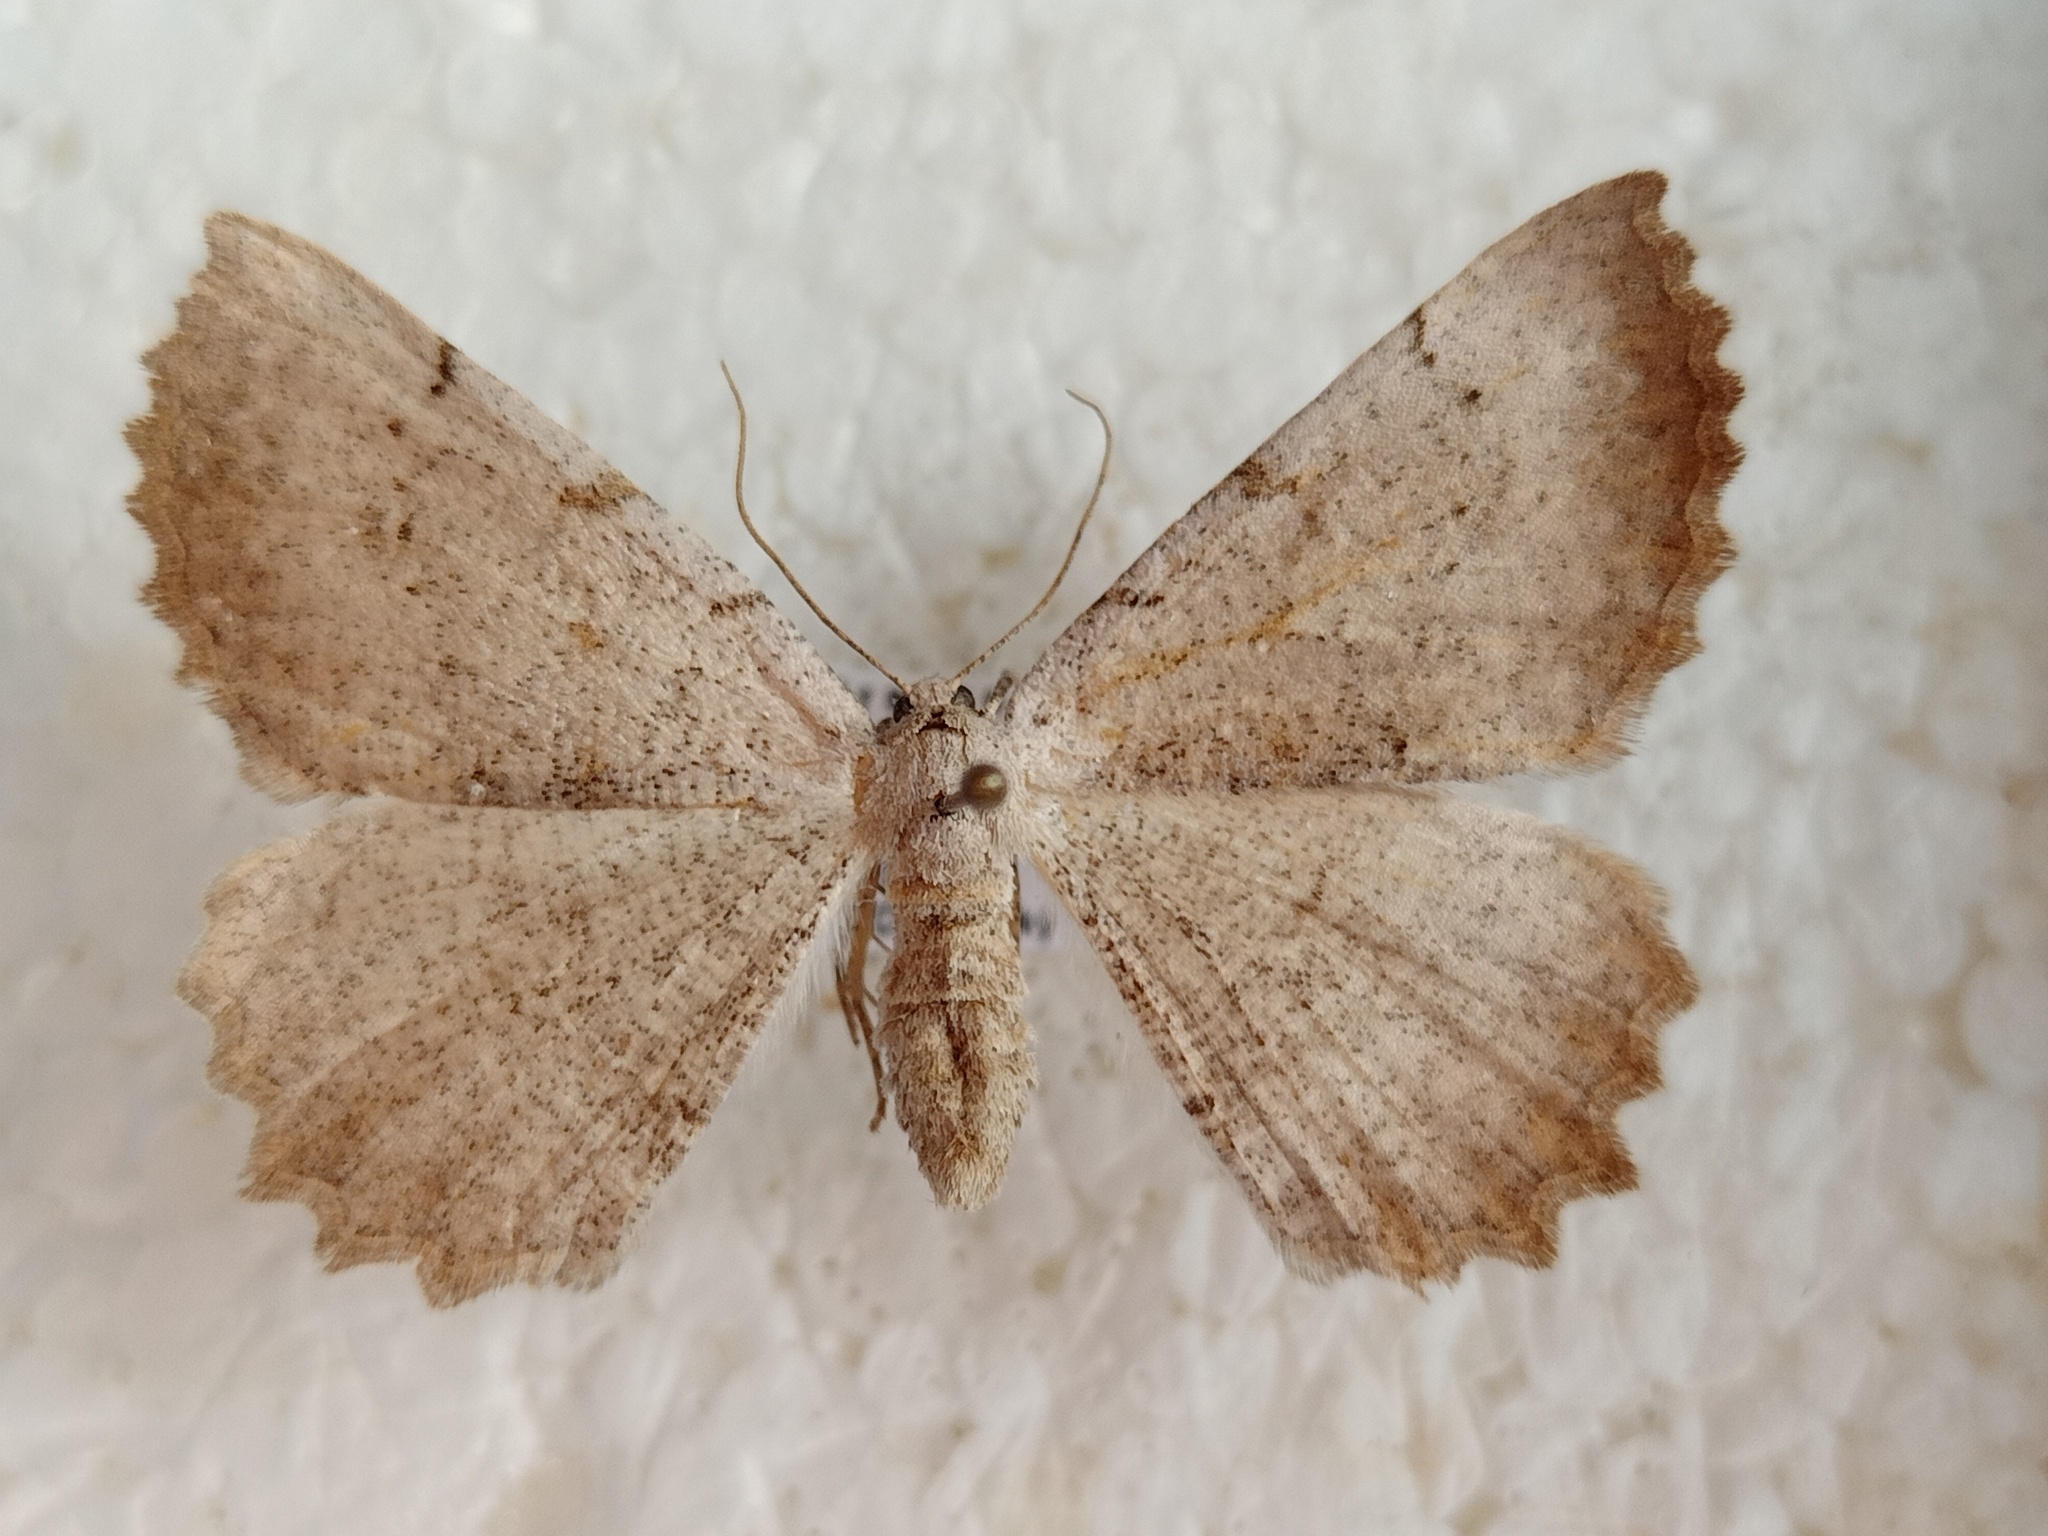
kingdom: Animalia
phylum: Arthropoda
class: Insecta
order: Lepidoptera
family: Geometridae
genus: Odontognophos
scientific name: Odontognophos dumetata
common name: Irish annulet
